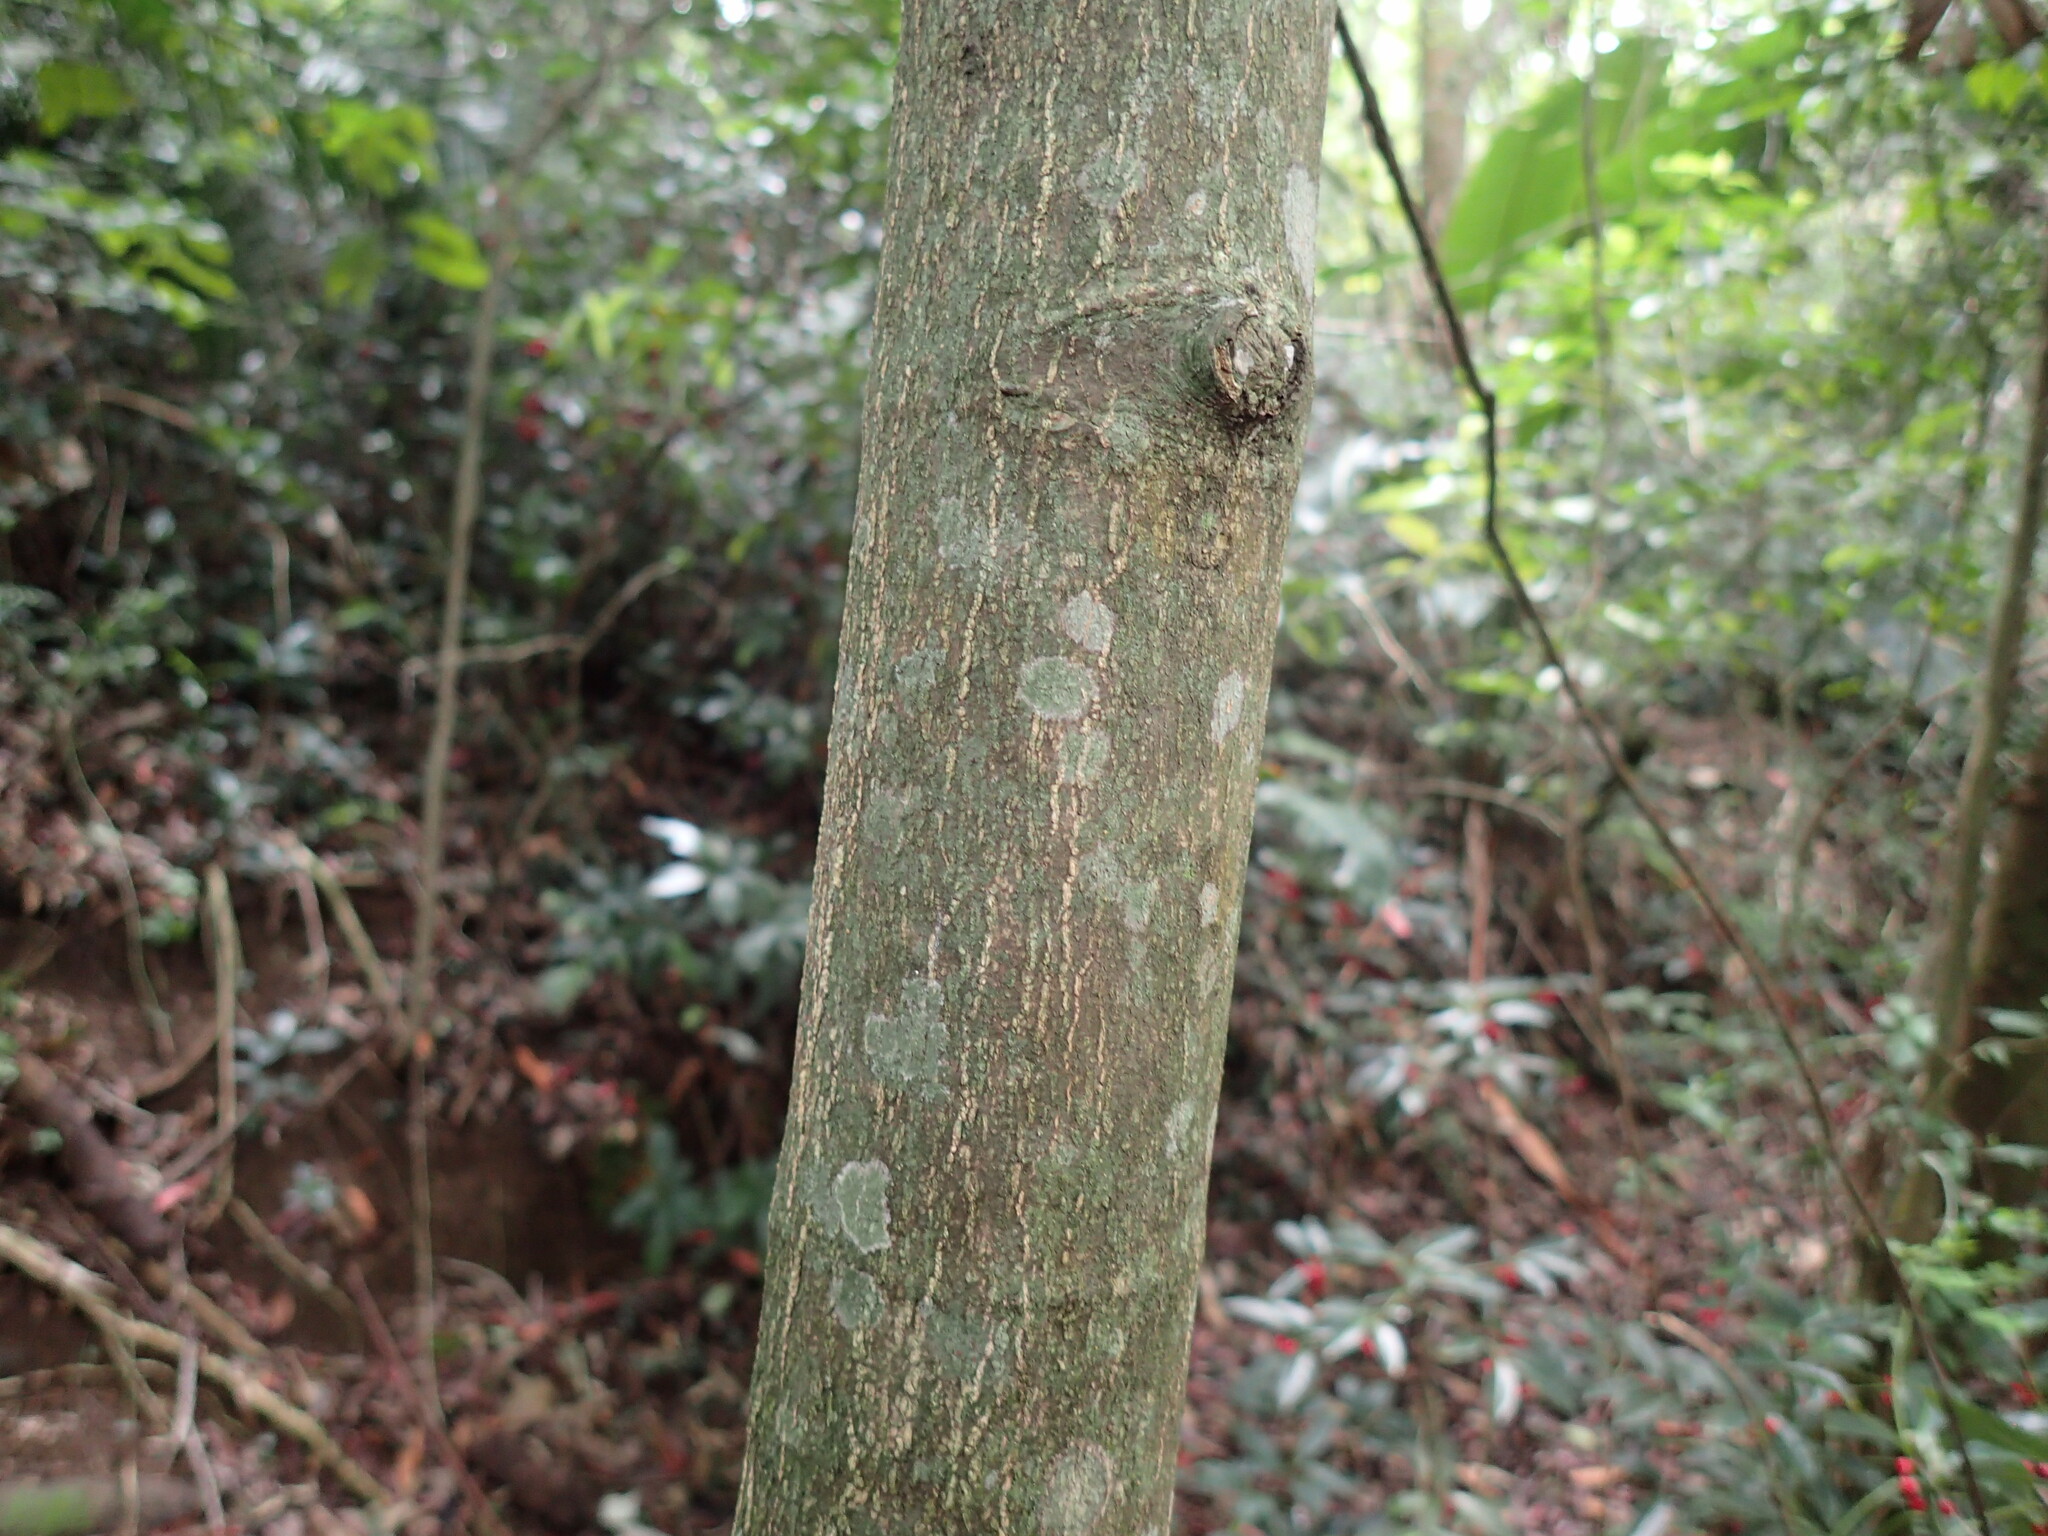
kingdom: Plantae
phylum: Tracheophyta
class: Magnoliopsida
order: Malpighiales
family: Rhizophoraceae
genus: Cassipourea
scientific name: Cassipourea gummiflua
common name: Large-leaved onionwood
